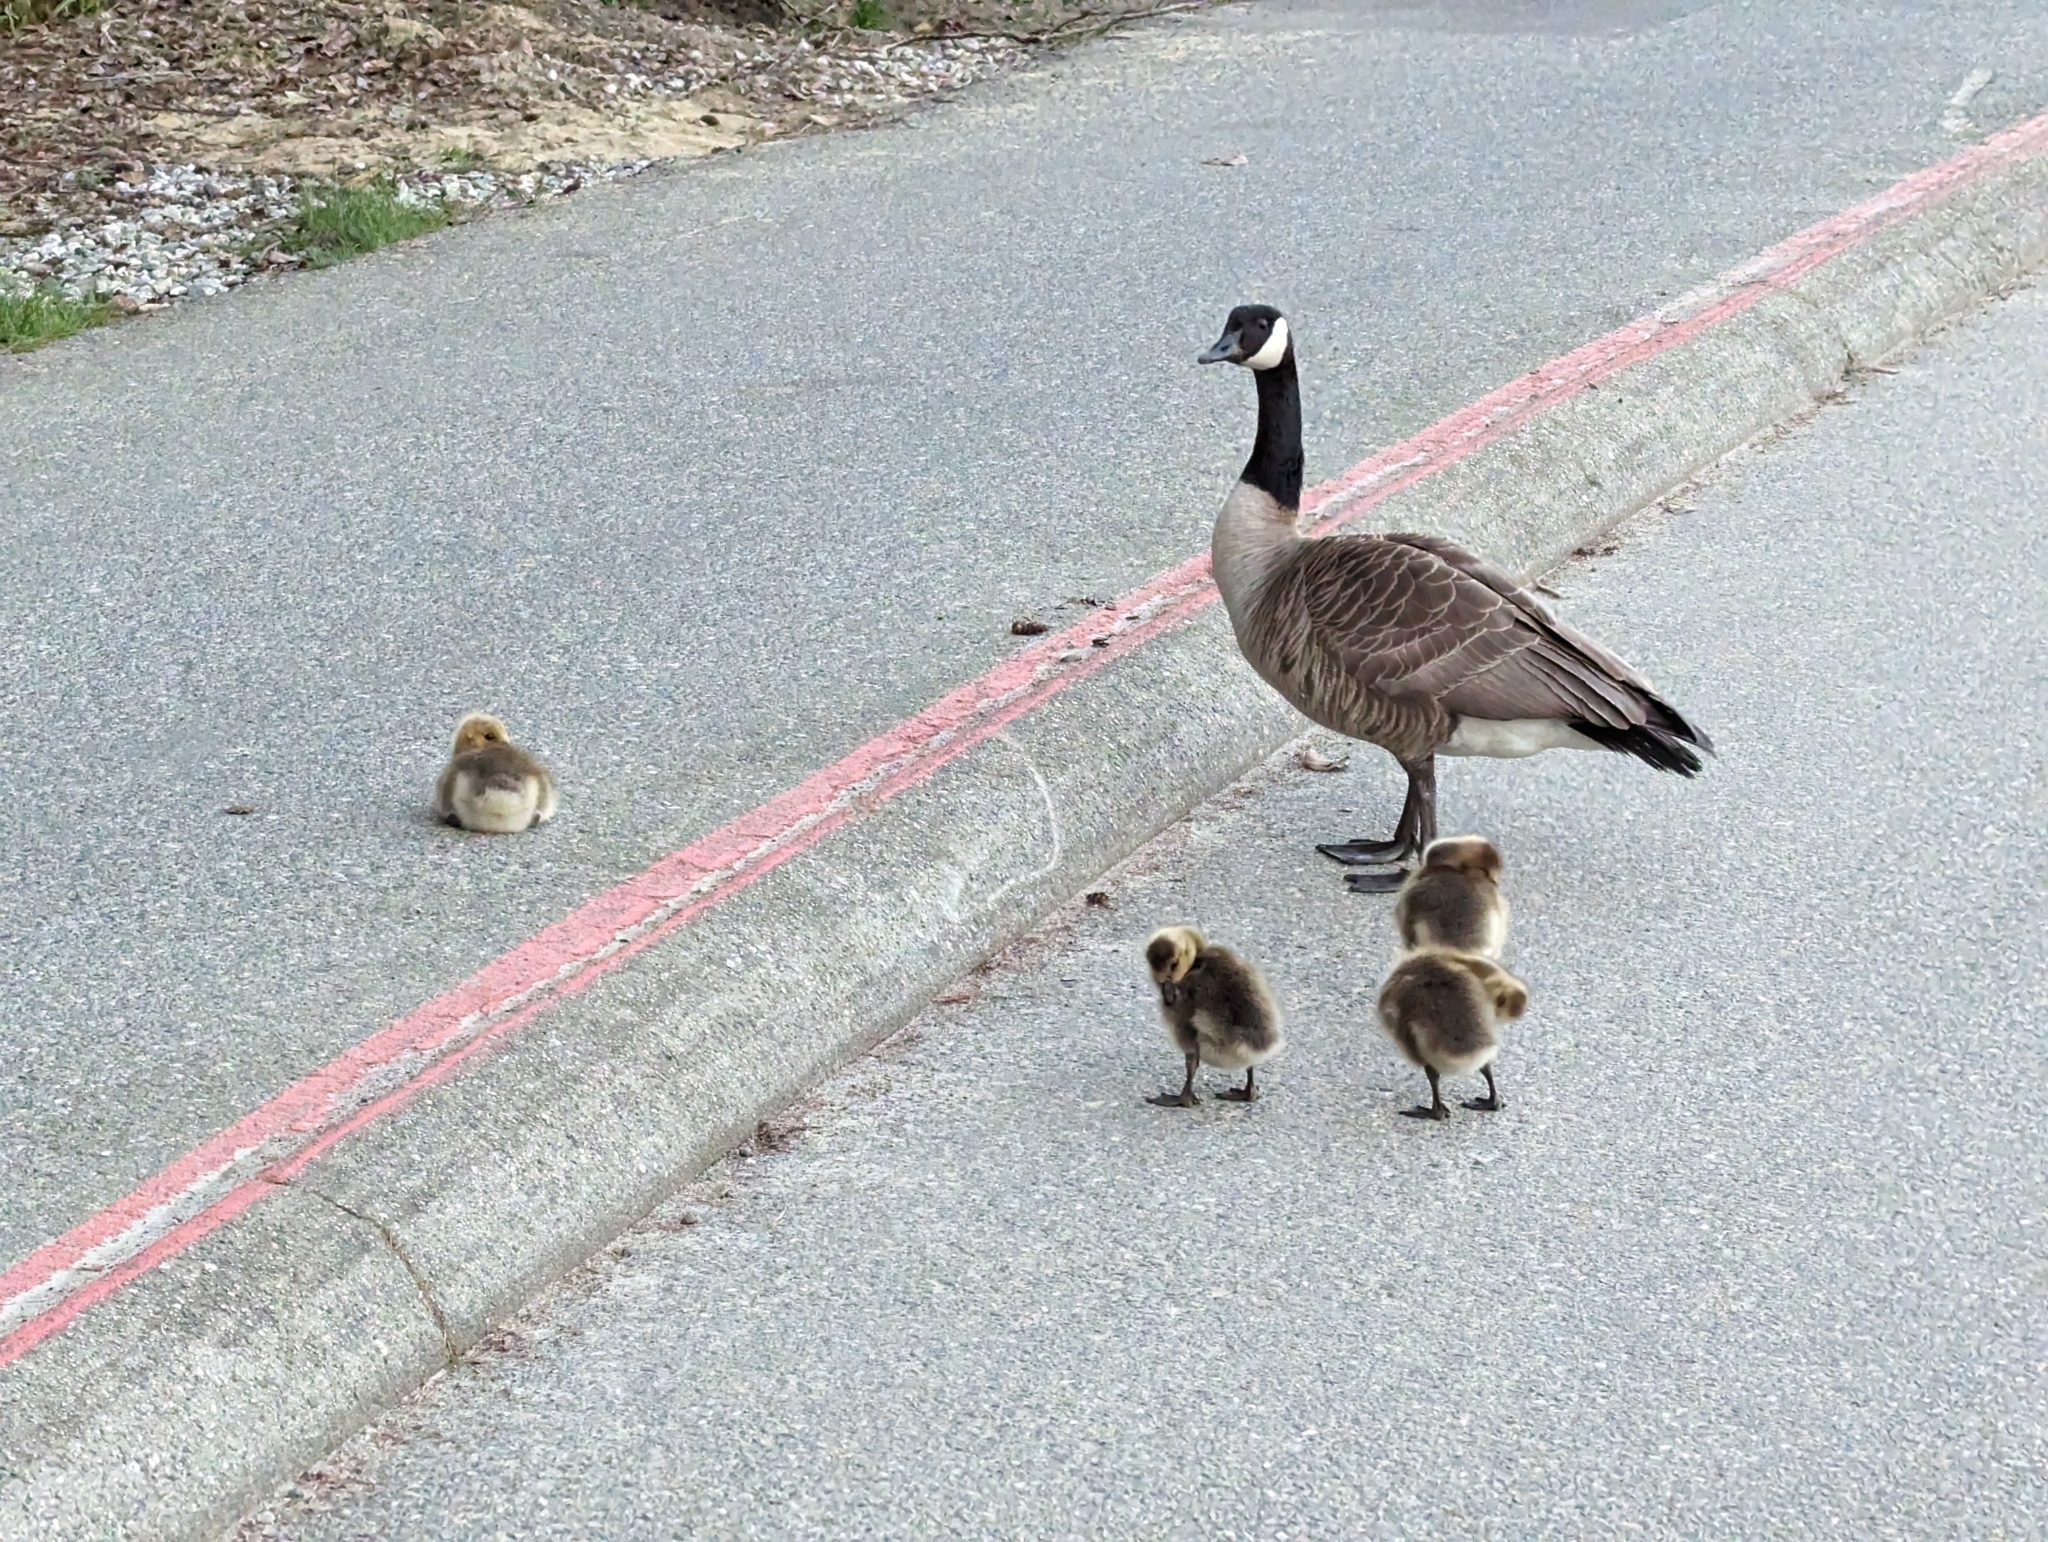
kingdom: Animalia
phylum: Chordata
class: Aves
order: Anseriformes
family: Anatidae
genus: Branta
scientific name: Branta canadensis
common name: Canada goose
